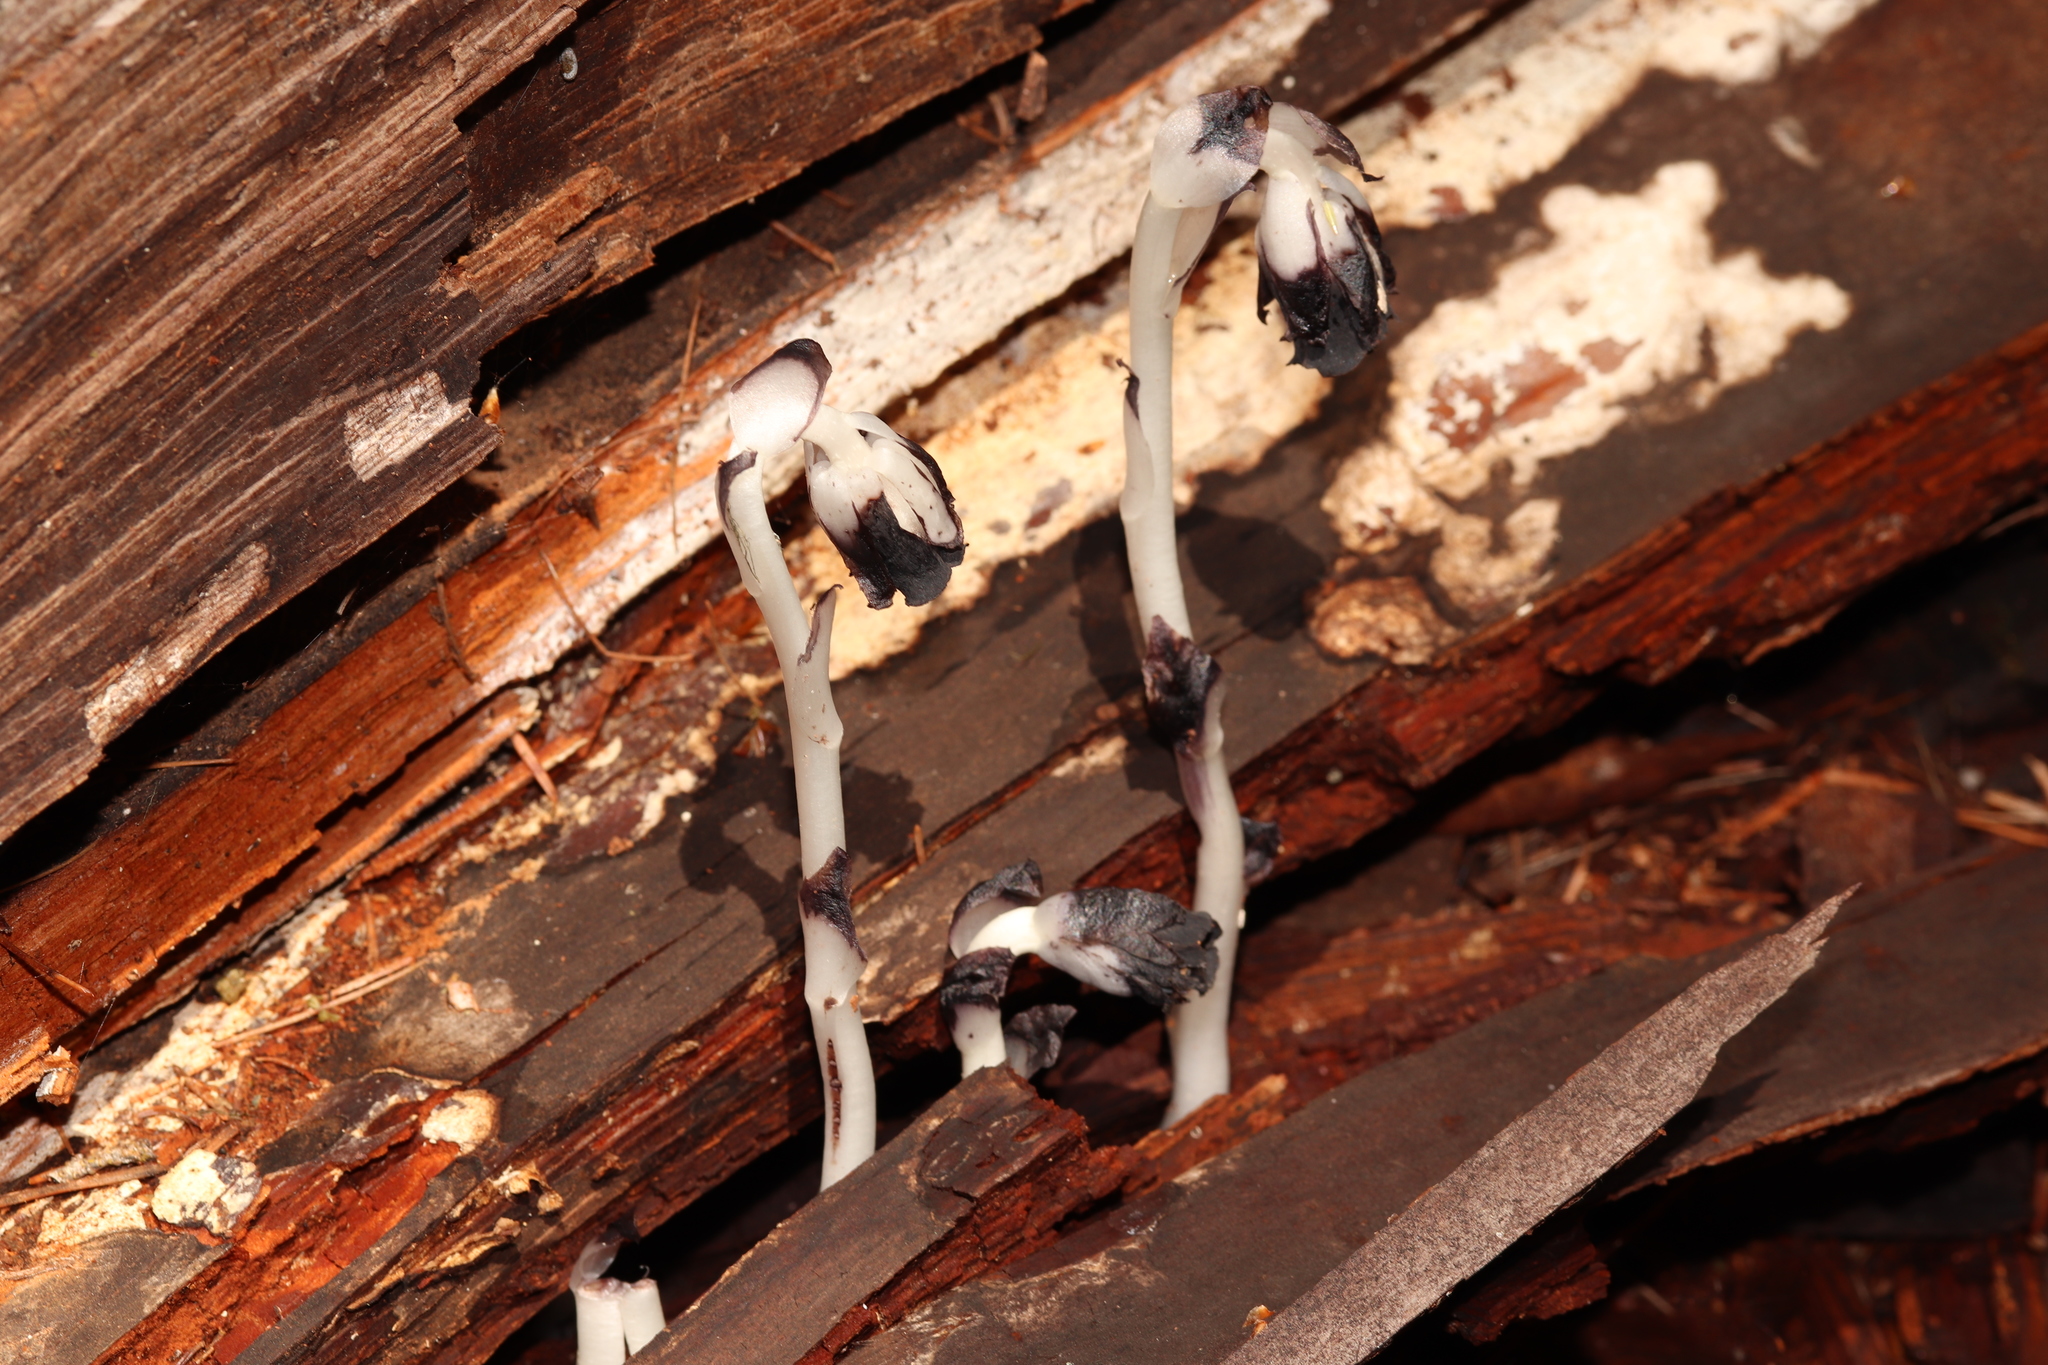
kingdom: Plantae
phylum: Tracheophyta
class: Magnoliopsida
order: Ericales
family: Ericaceae
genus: Monotropa
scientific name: Monotropa uniflora
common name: Convulsion root
